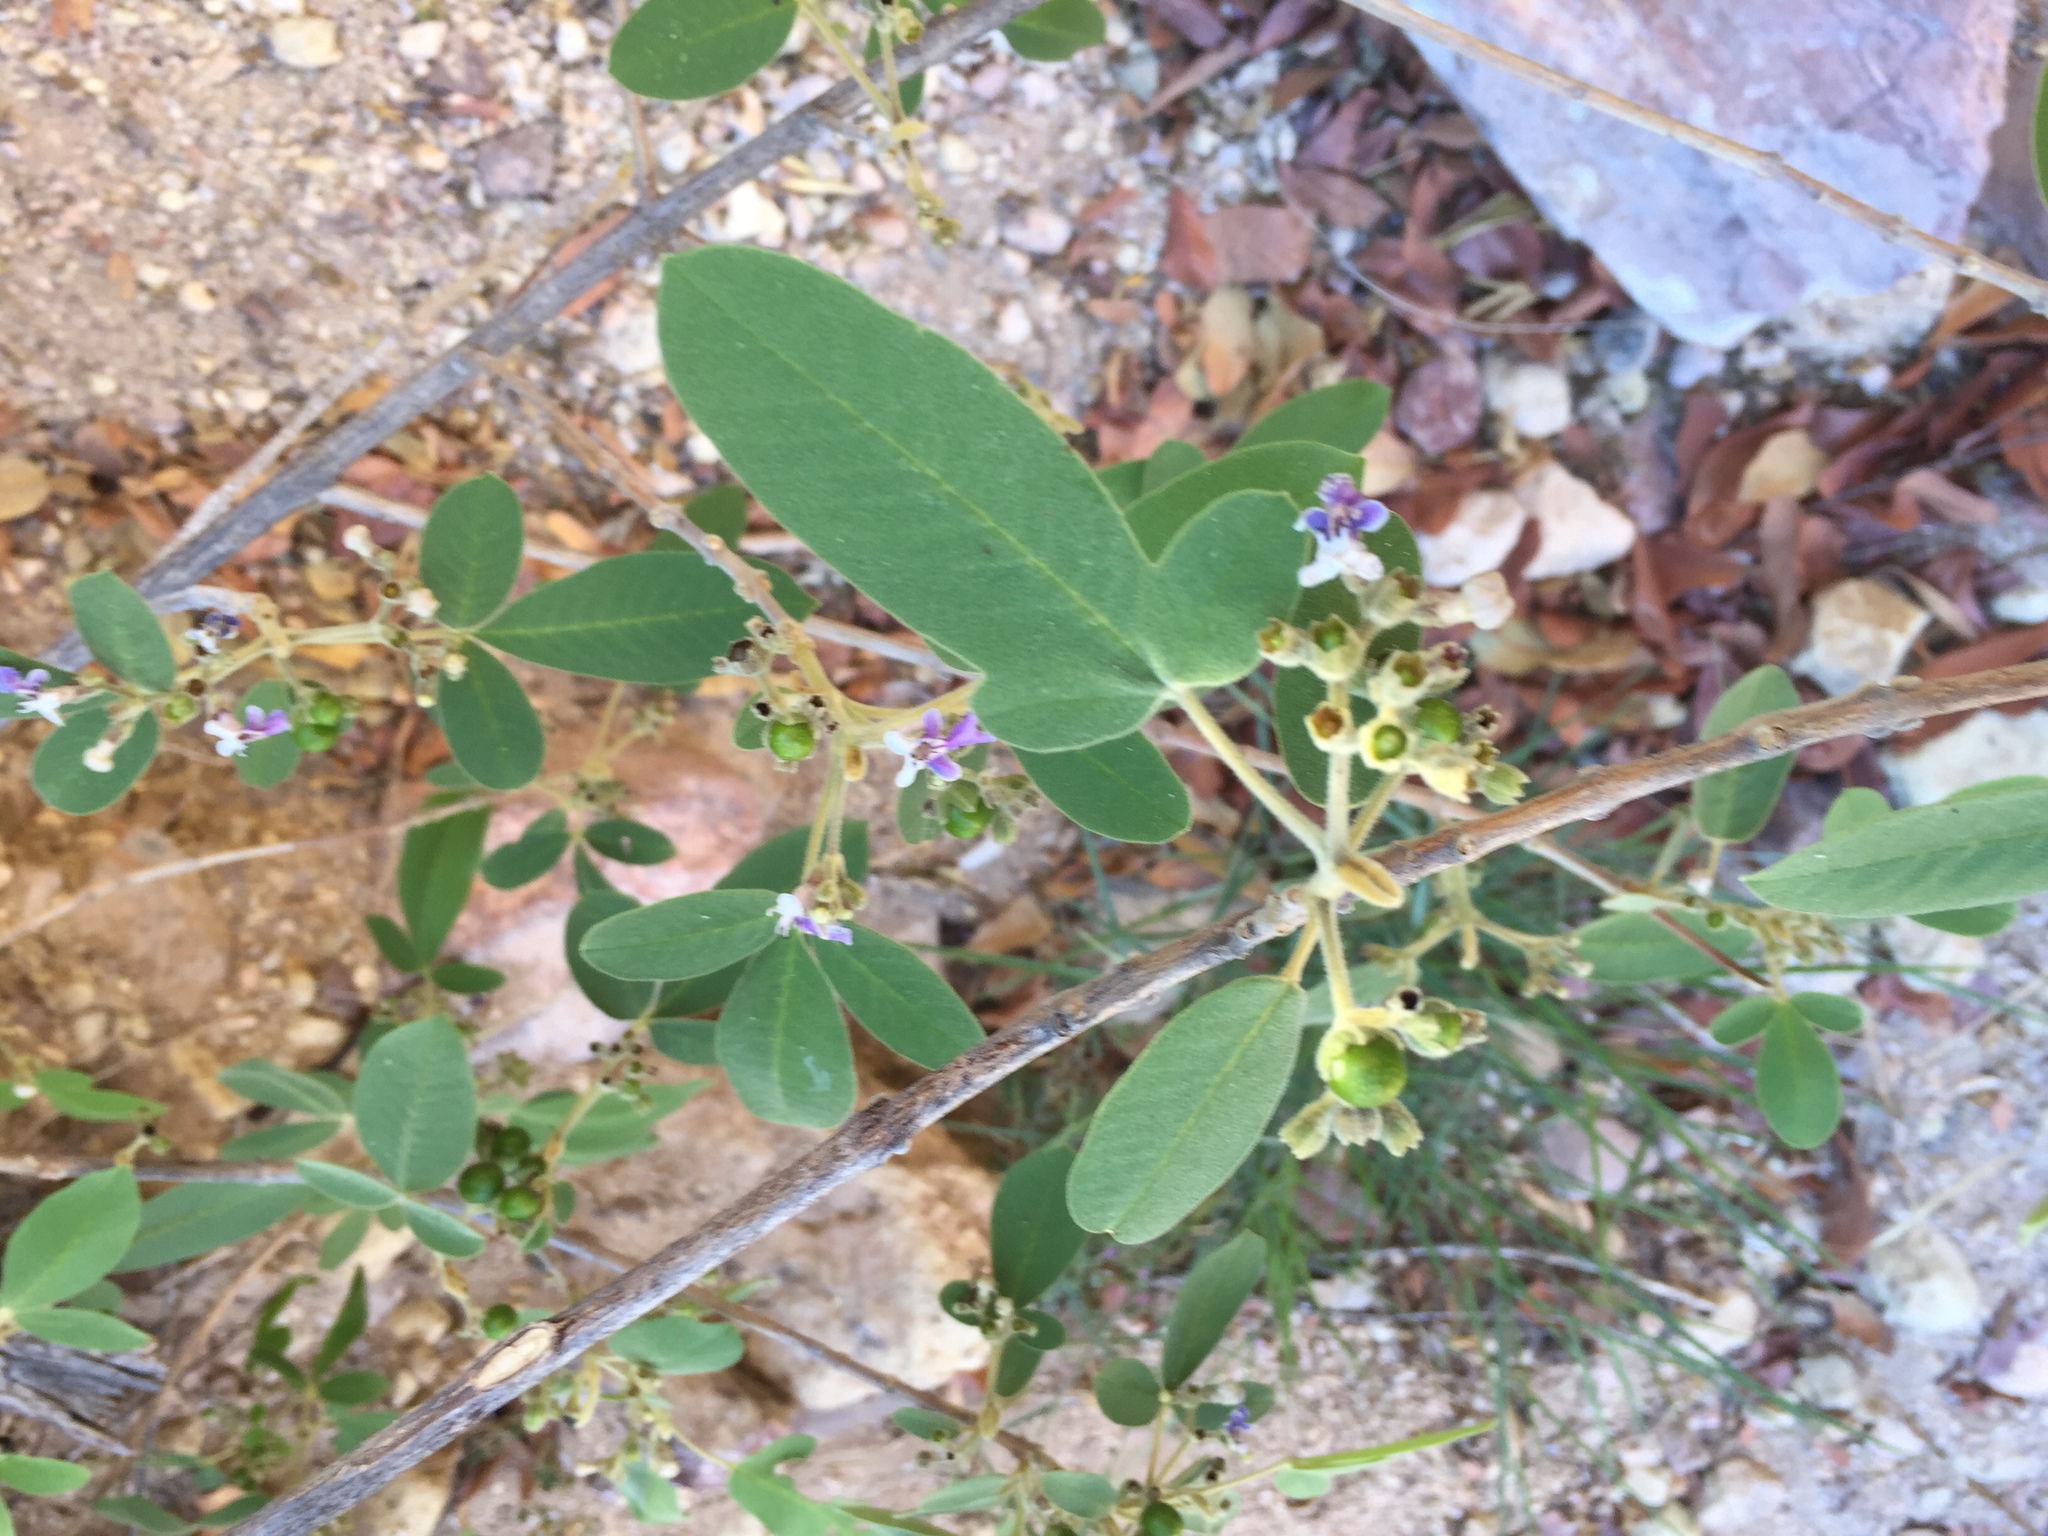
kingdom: Plantae
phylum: Tracheophyta
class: Magnoliopsida
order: Lamiales
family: Lamiaceae
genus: Vitex
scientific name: Vitex mollis
